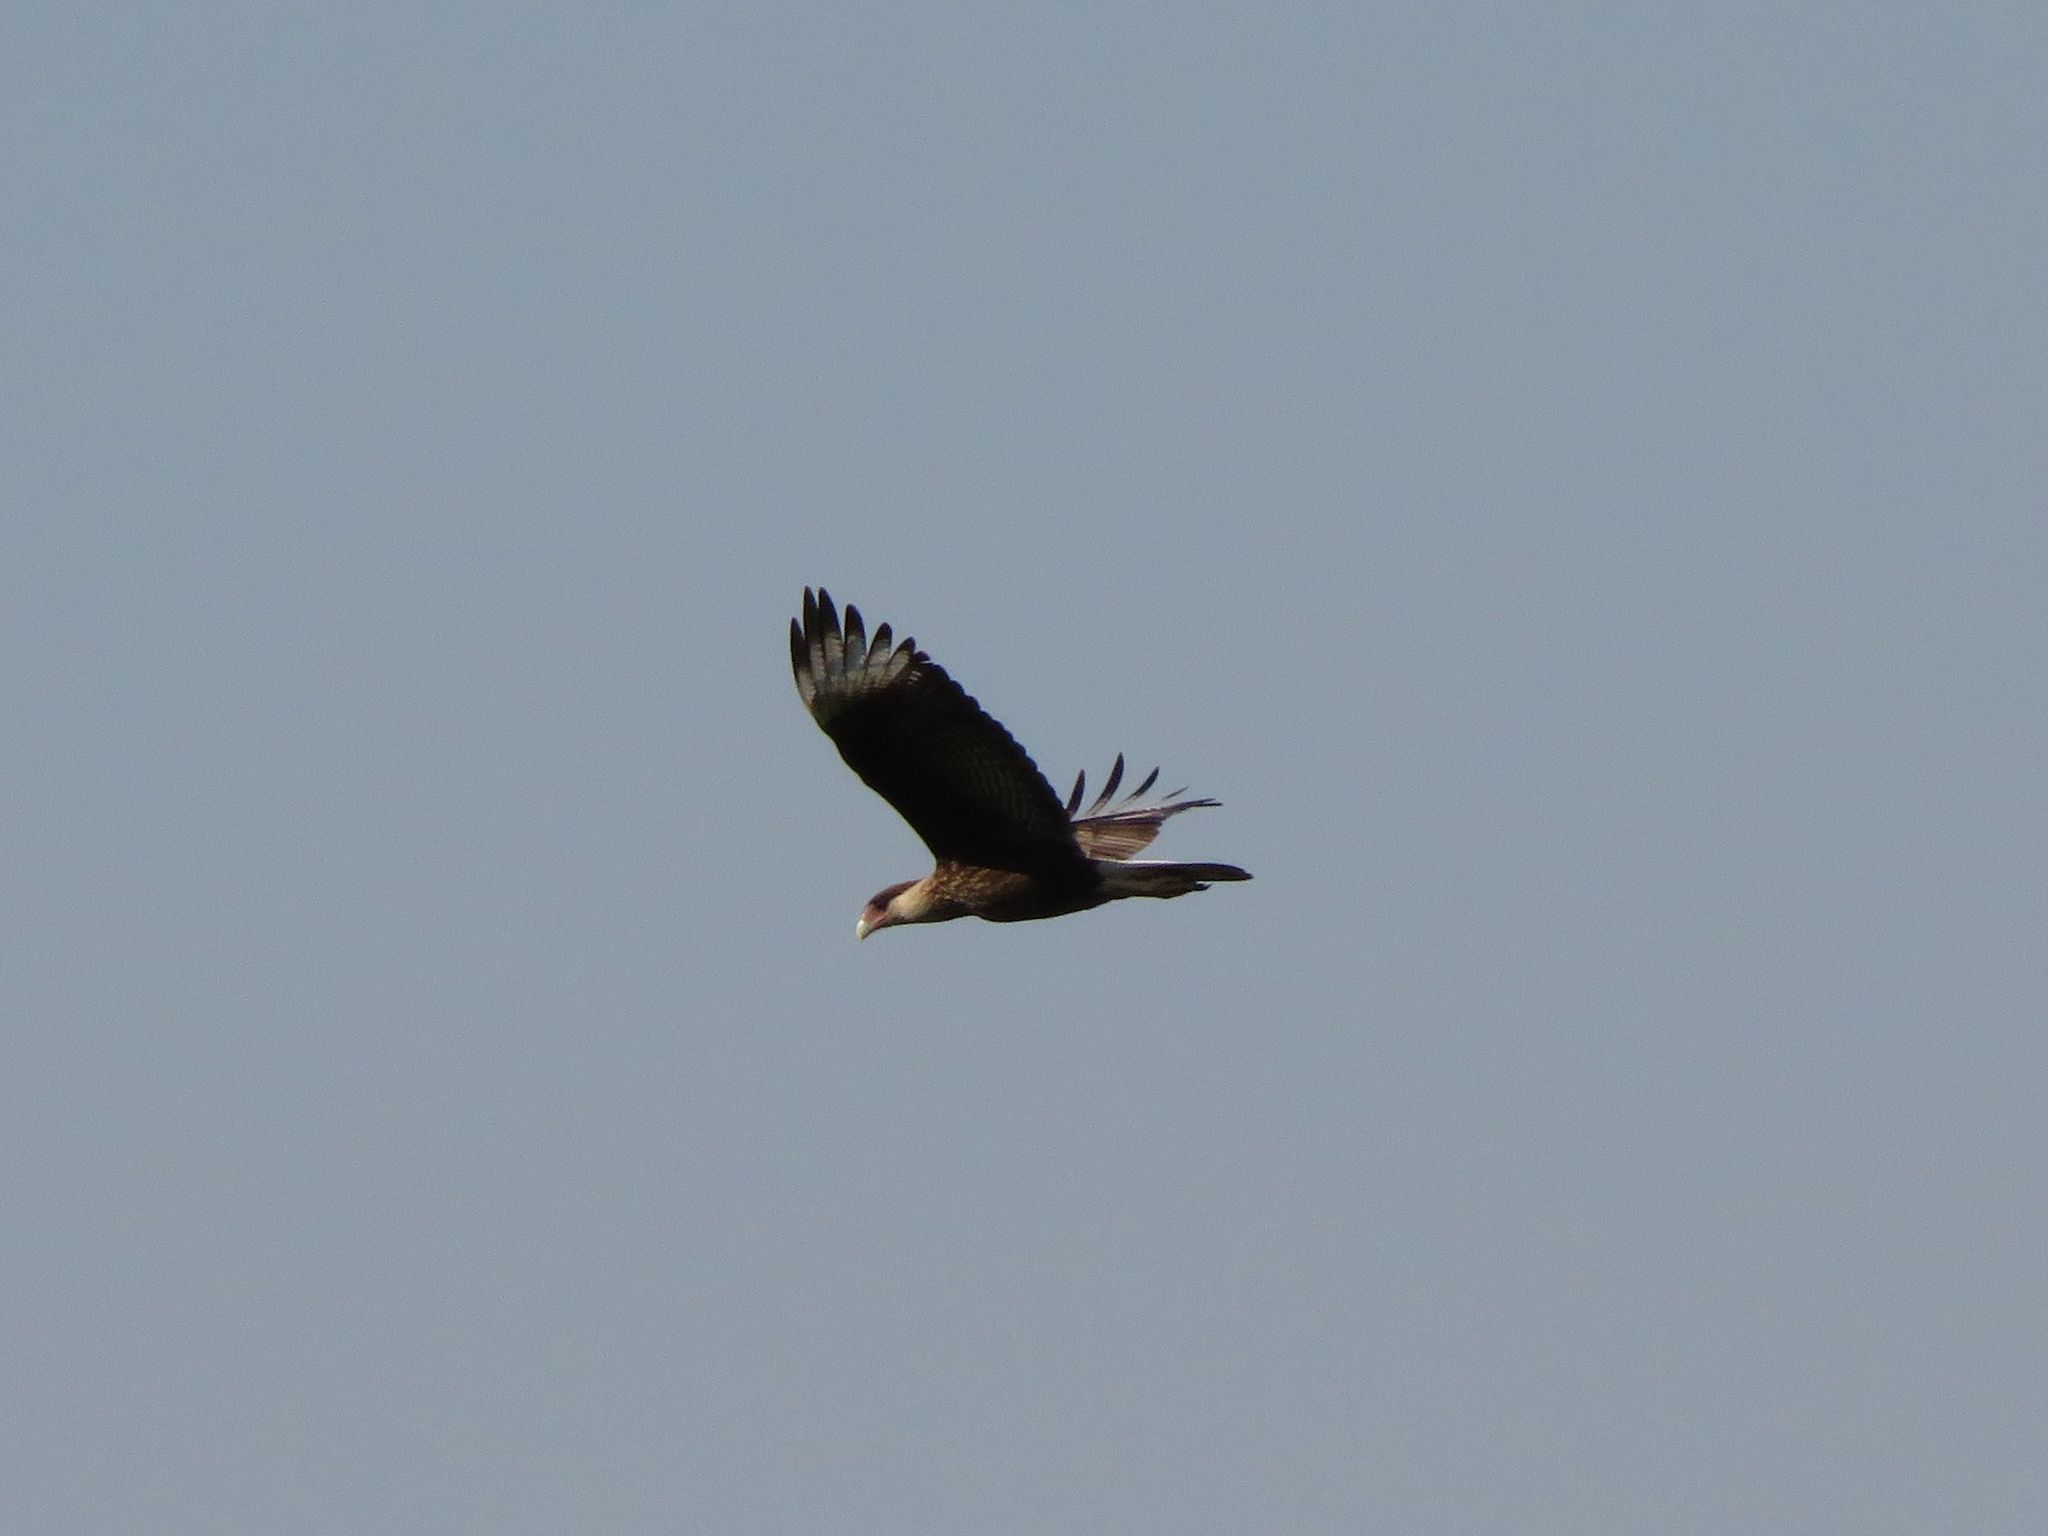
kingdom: Animalia
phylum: Chordata
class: Aves
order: Falconiformes
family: Falconidae
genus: Caracara
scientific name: Caracara plancus
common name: Southern caracara
